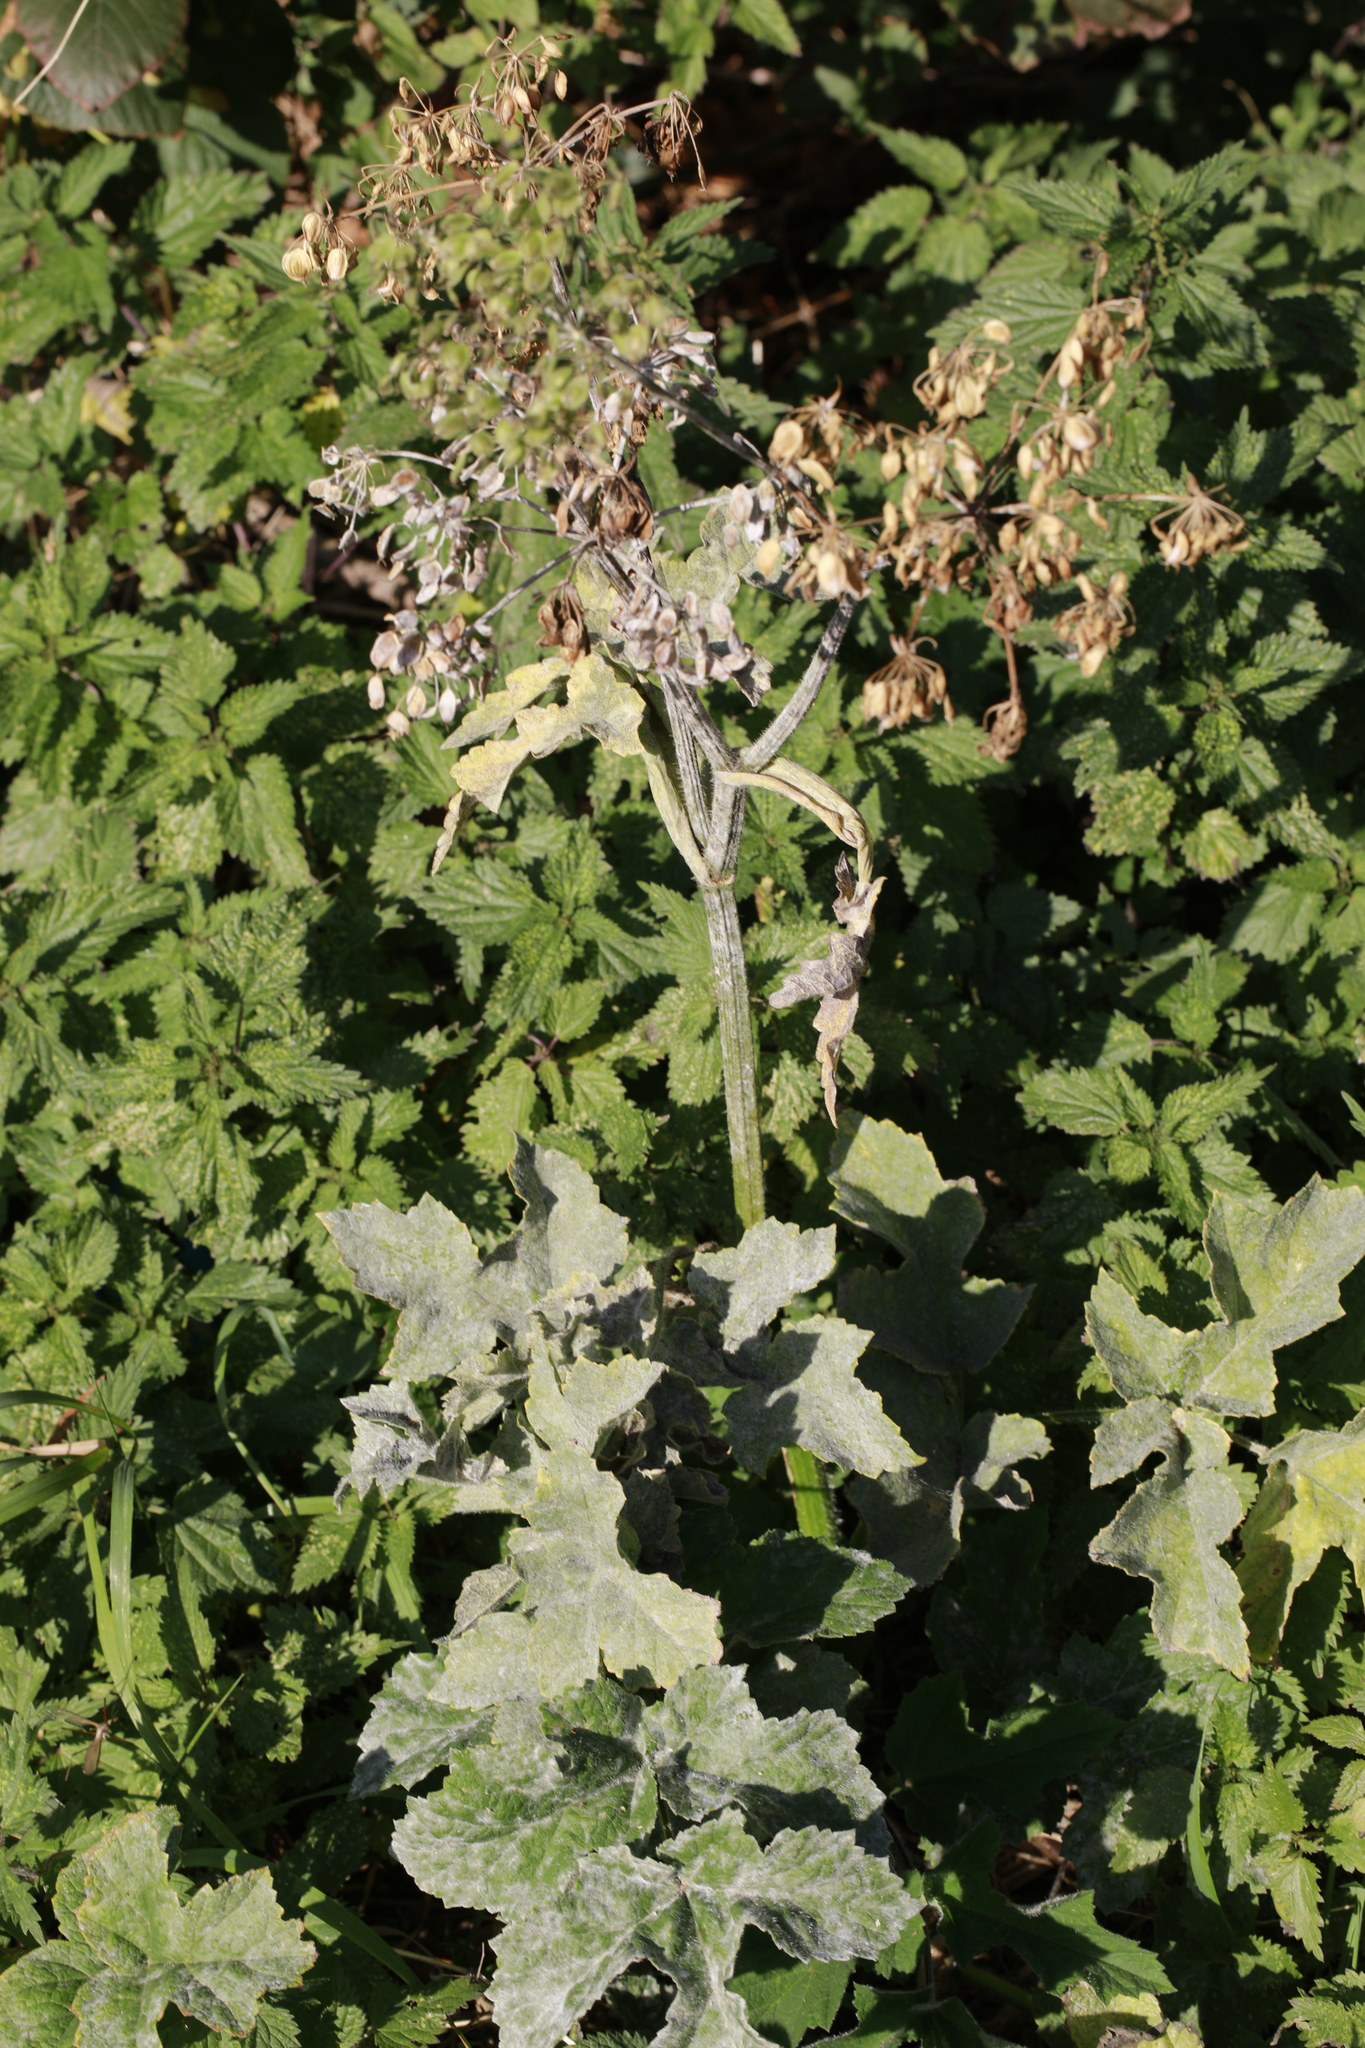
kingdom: Plantae
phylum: Tracheophyta
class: Magnoliopsida
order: Apiales
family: Apiaceae
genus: Heracleum
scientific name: Heracleum sphondylium
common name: Hogweed
